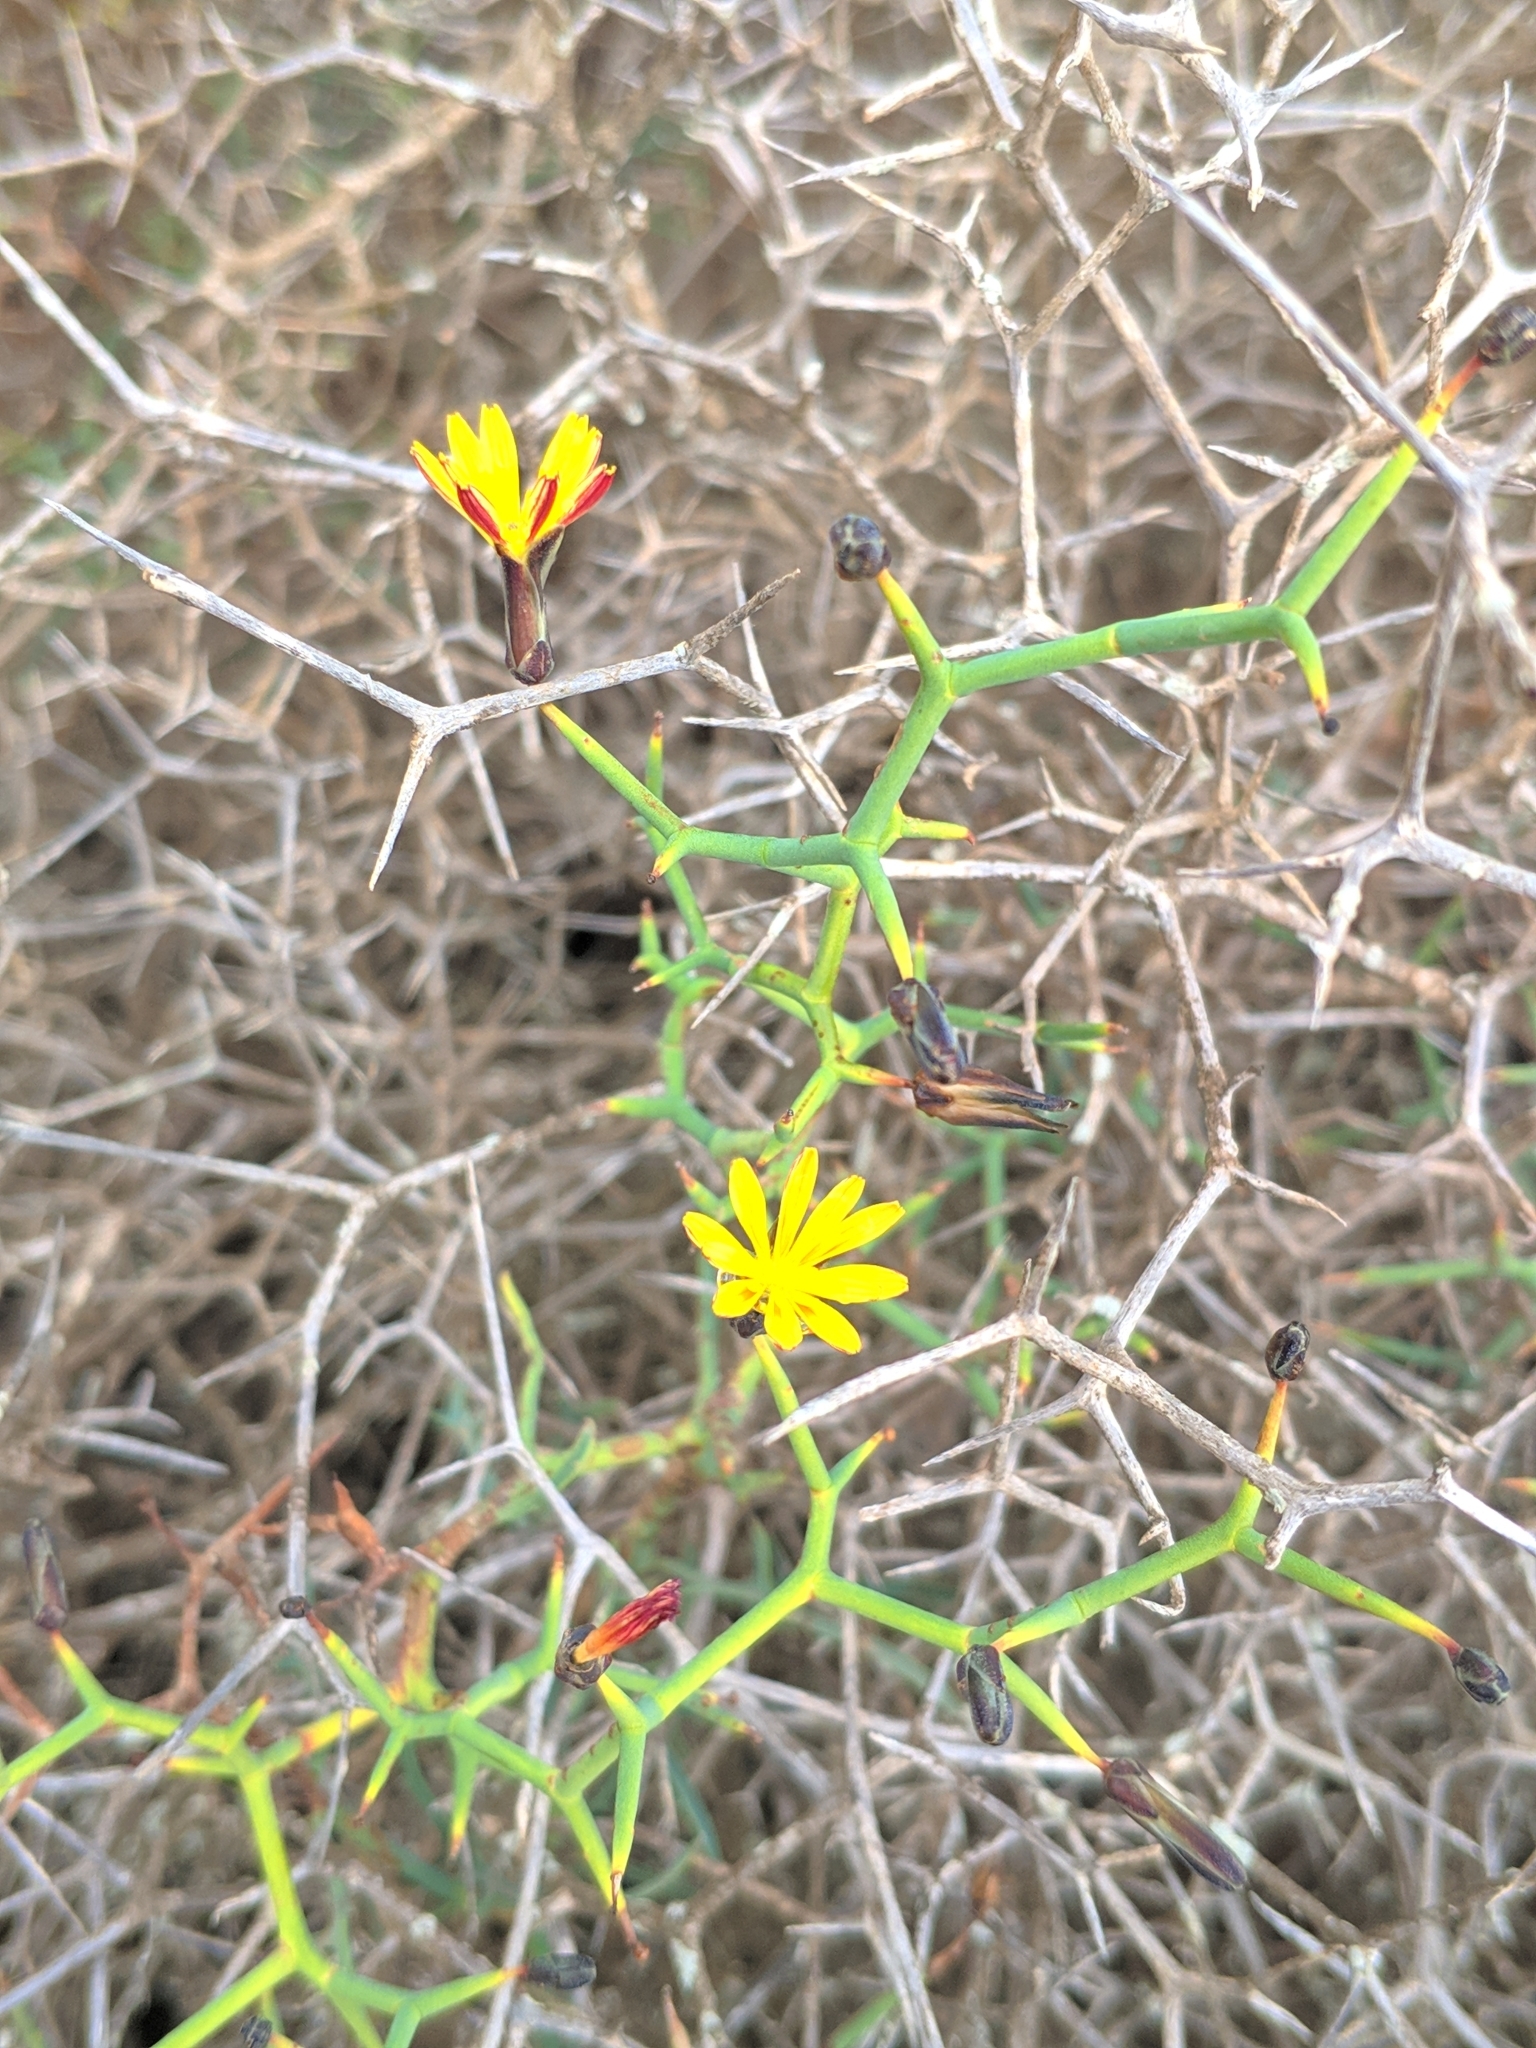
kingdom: Plantae
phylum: Tracheophyta
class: Magnoliopsida
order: Asterales
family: Asteraceae
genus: Launaea
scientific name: Launaea arborescens
